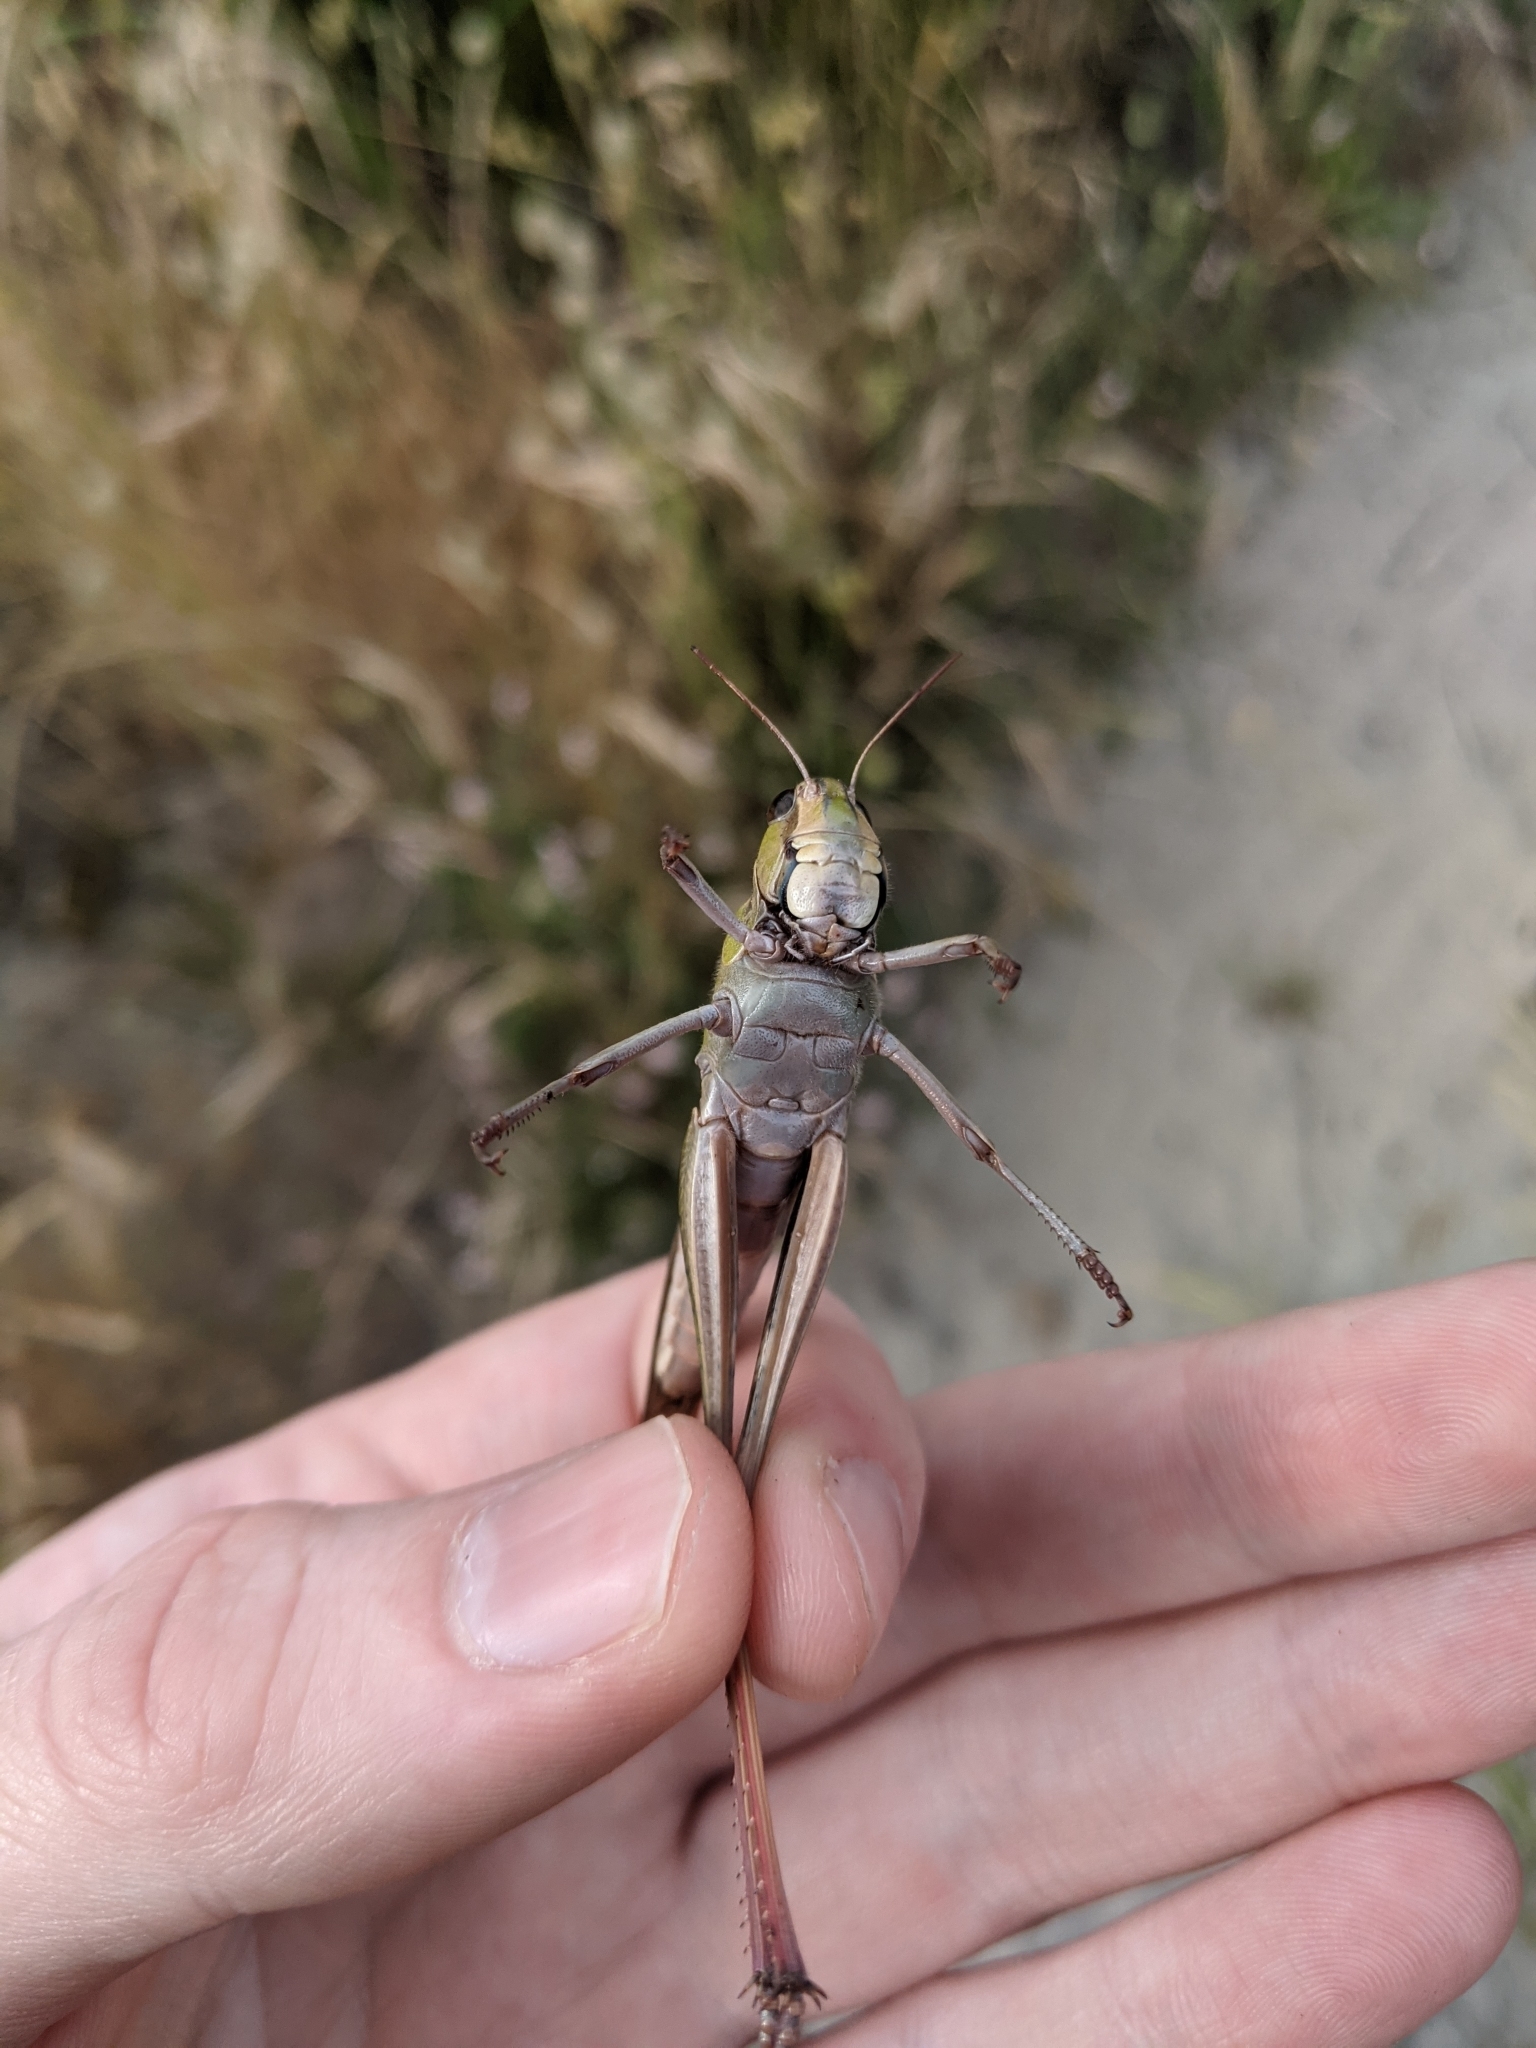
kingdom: Animalia
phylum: Arthropoda
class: Insecta
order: Orthoptera
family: Acrididae
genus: Locusta
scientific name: Locusta migratoria
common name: Migratory locust
